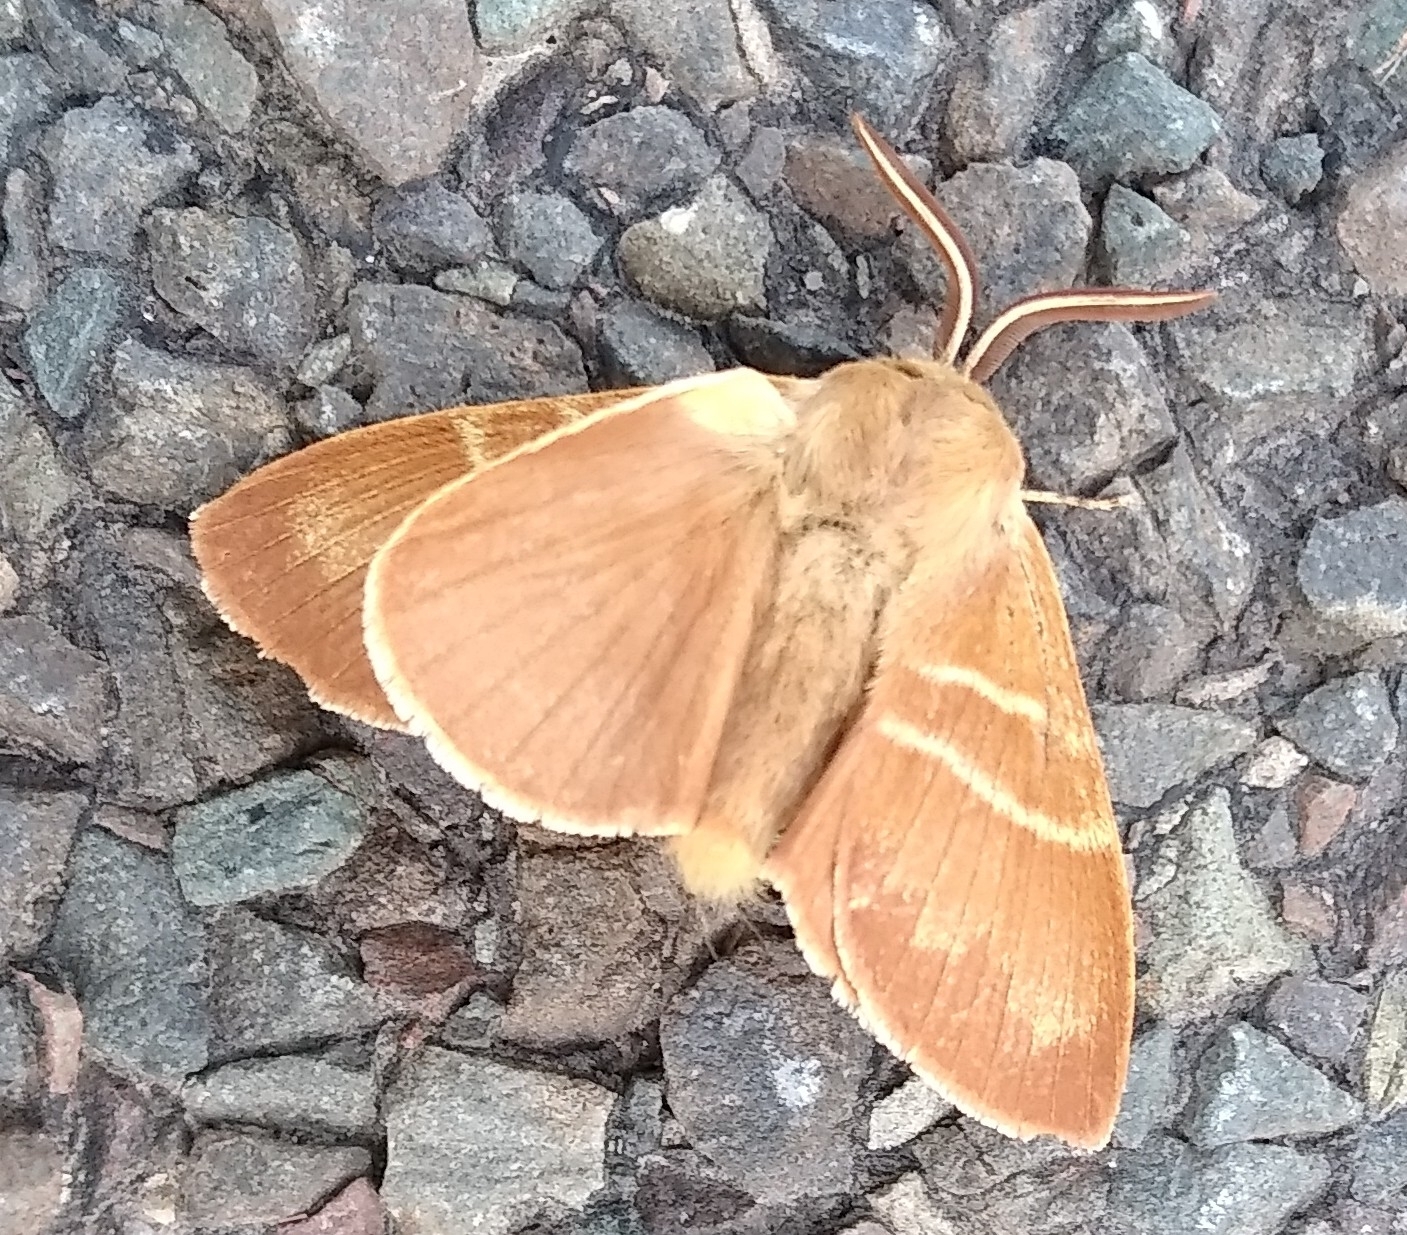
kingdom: Animalia
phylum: Arthropoda
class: Insecta
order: Lepidoptera
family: Lasiocampidae
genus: Macrothylacia
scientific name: Macrothylacia rubi
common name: Fox moth
